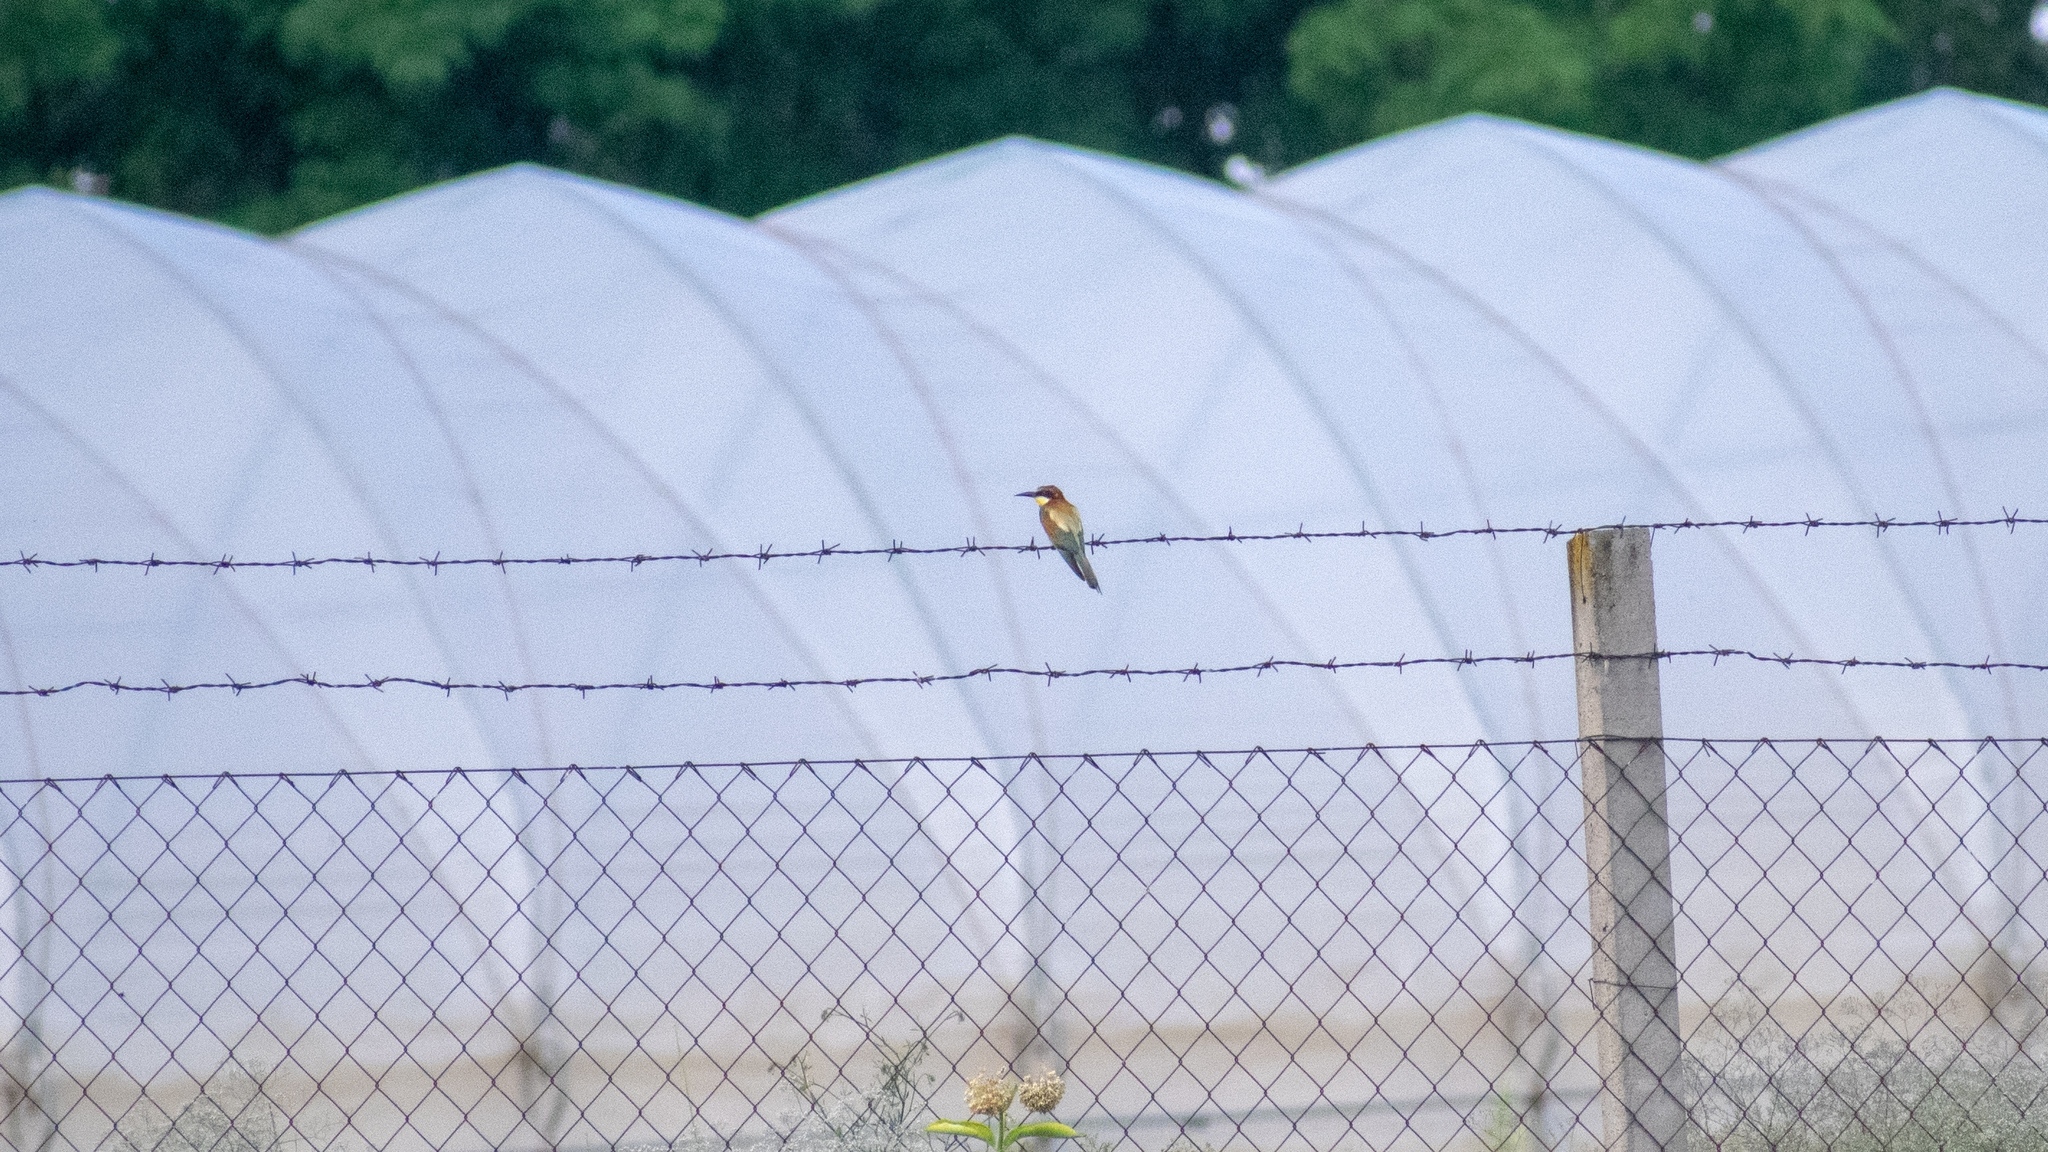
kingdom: Animalia
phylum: Chordata
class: Aves
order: Coraciiformes
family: Meropidae
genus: Merops
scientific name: Merops apiaster
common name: European bee-eater
